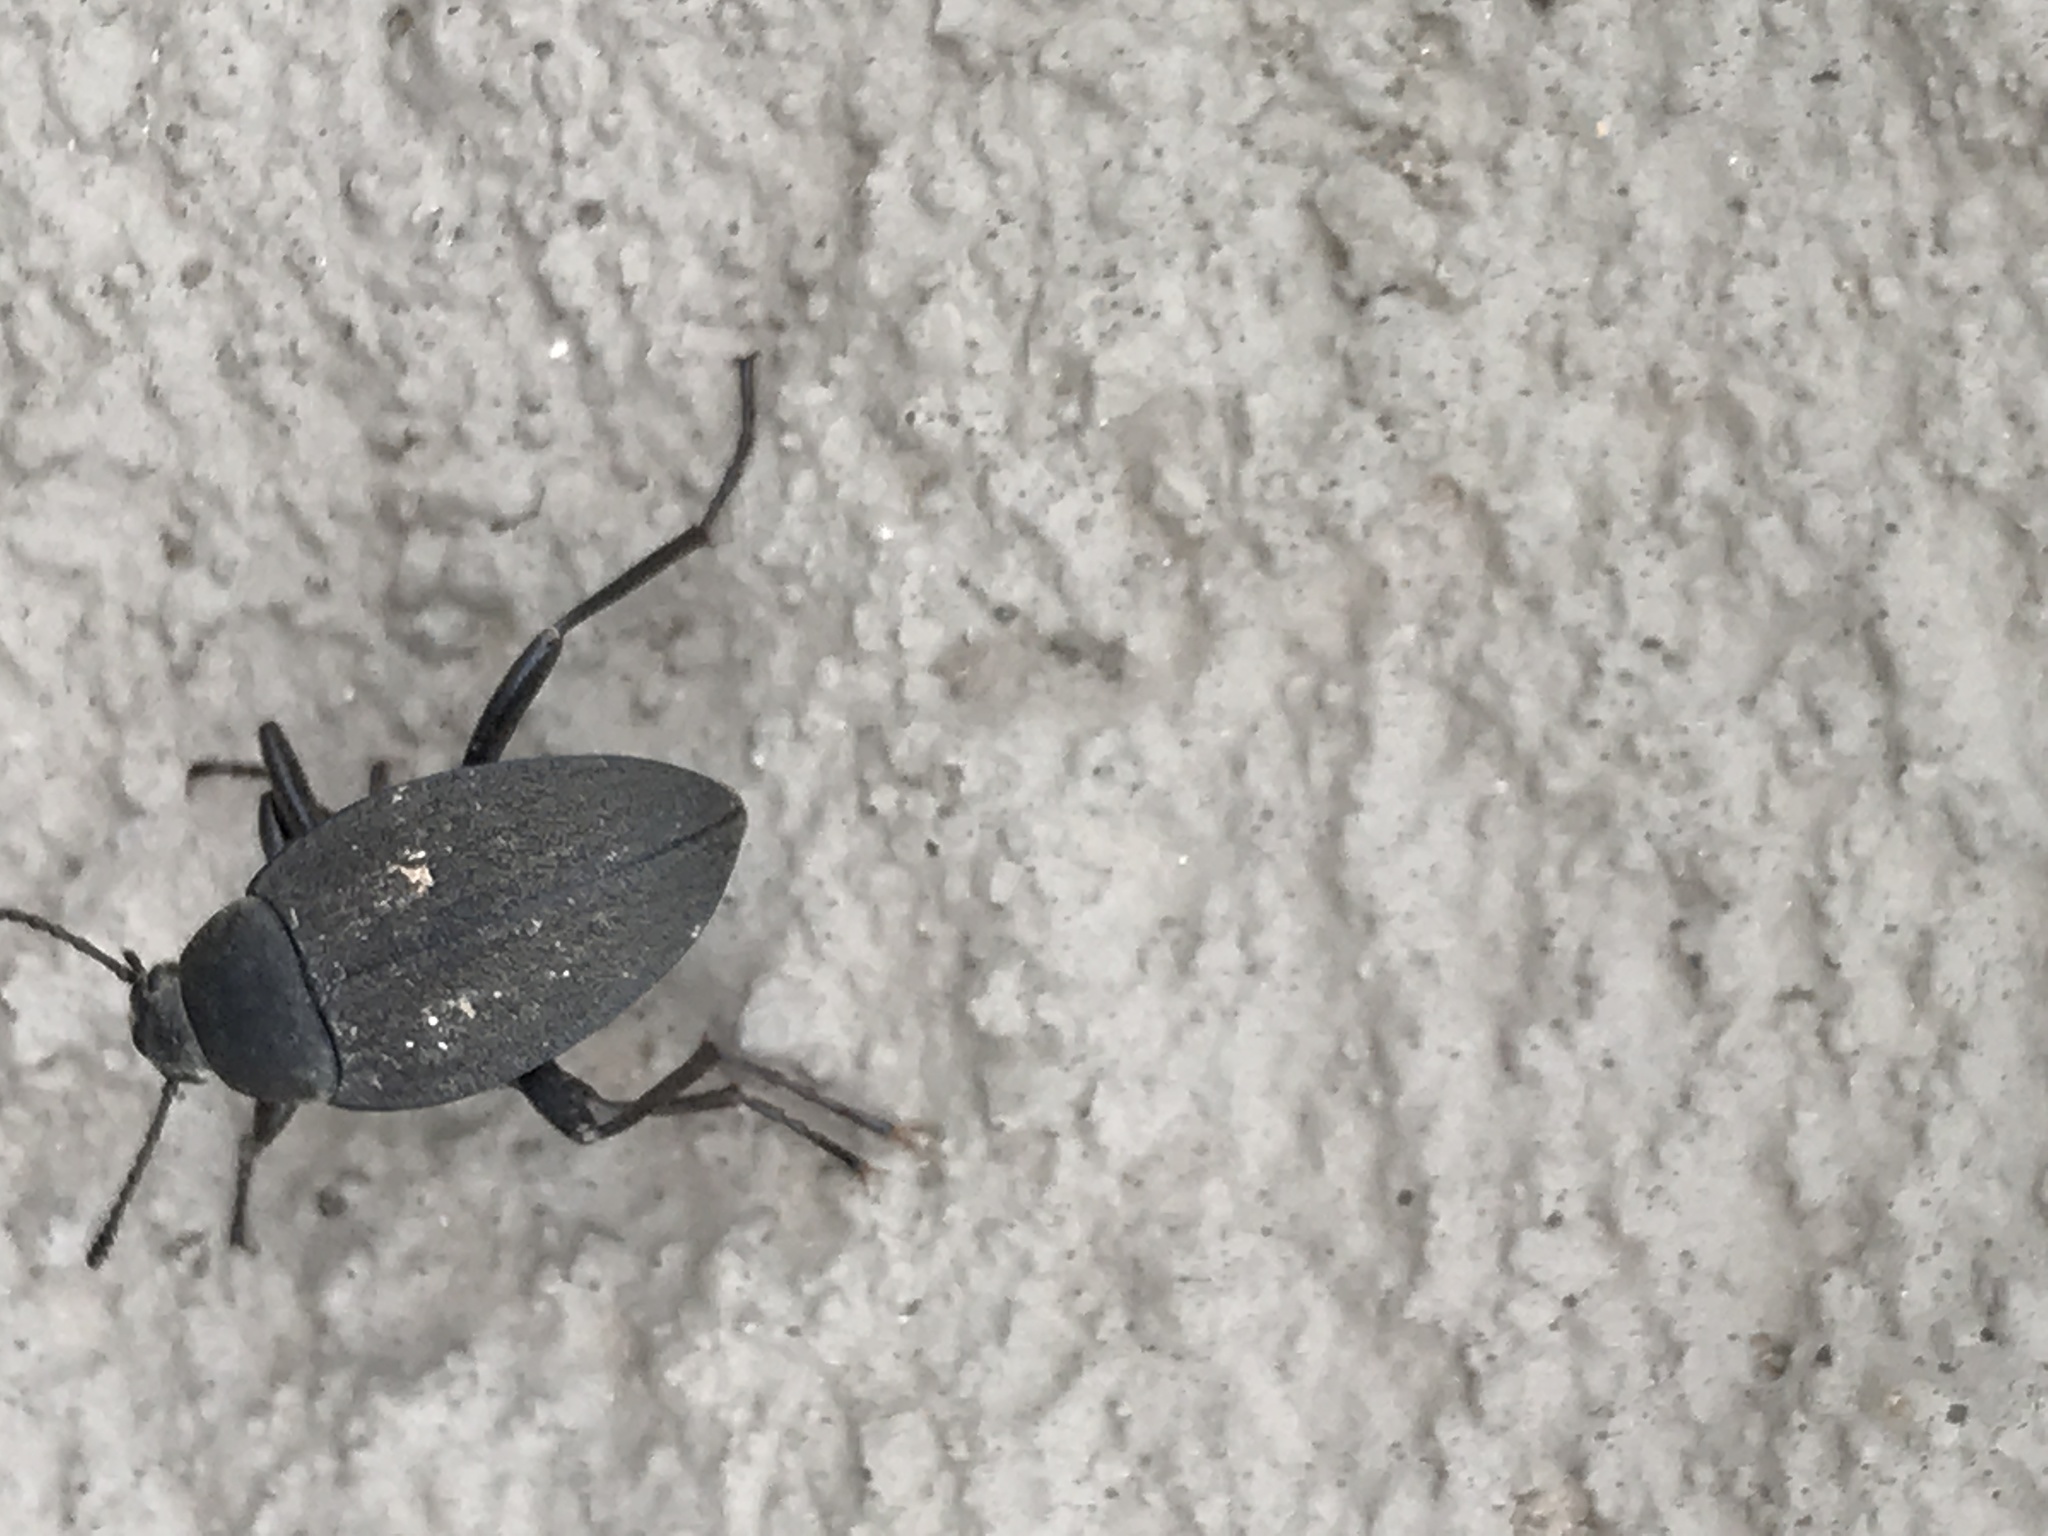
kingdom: Animalia
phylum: Arthropoda
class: Insecta
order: Coleoptera
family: Tenebrionidae
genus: Eleodes
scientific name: Eleodes opaca
